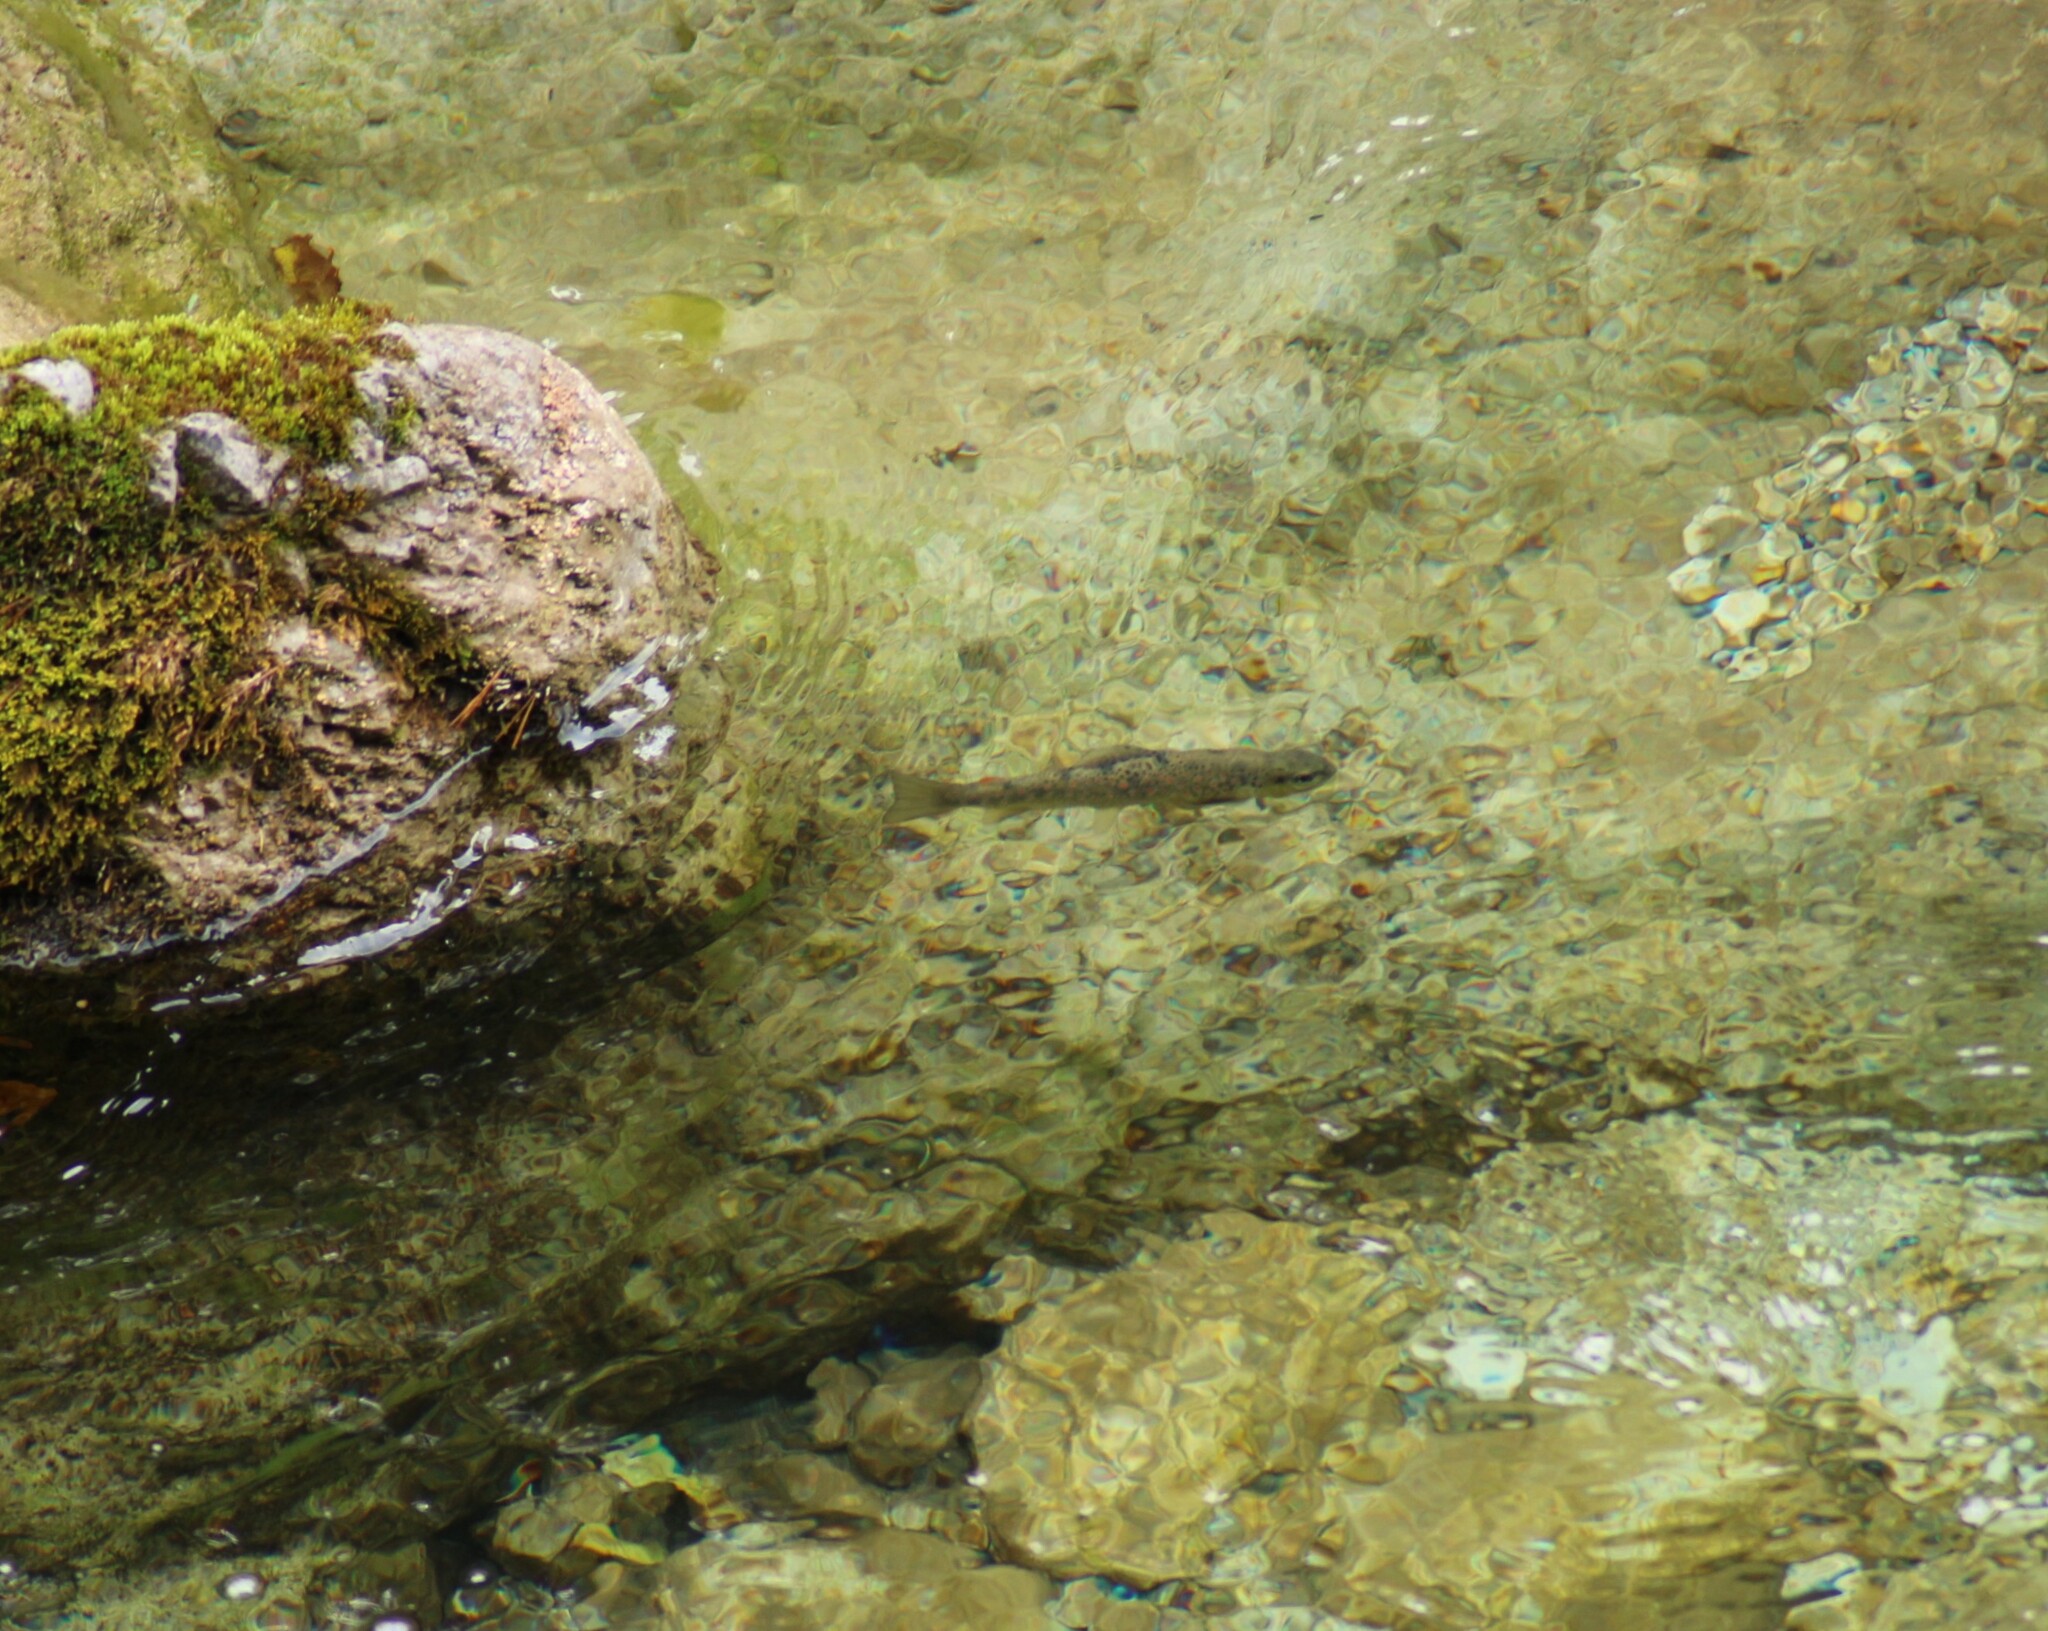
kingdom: Animalia
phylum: Chordata
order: Salmoniformes
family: Salmonidae
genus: Salmo
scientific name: Salmo trutta
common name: Brown trout
